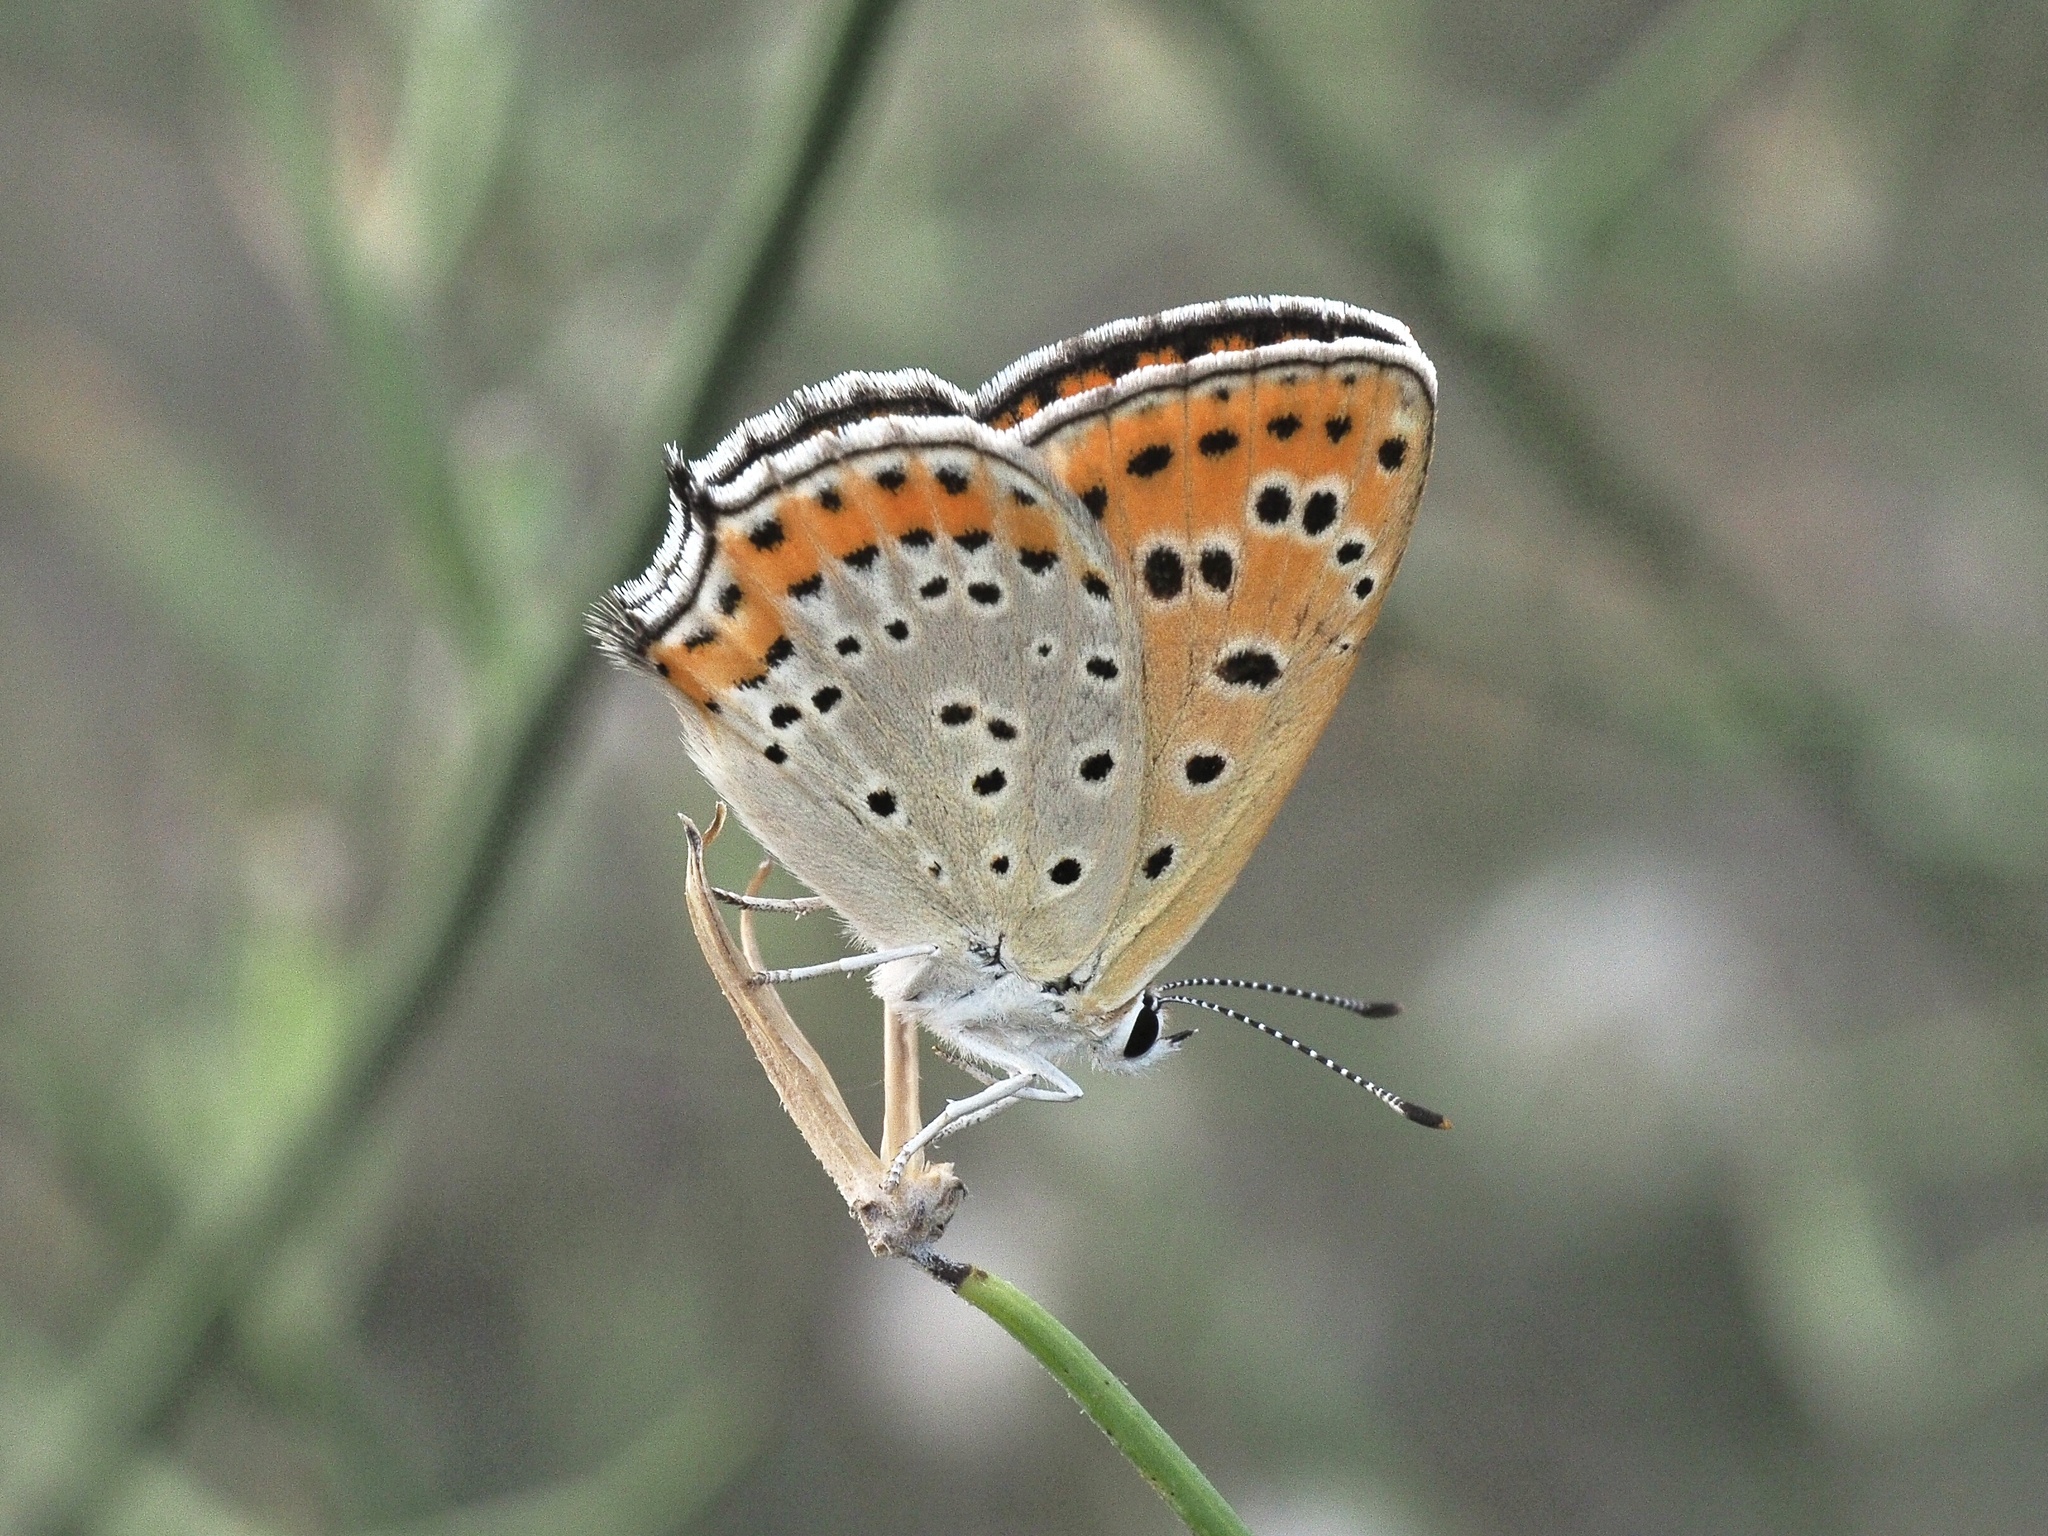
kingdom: Animalia
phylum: Arthropoda
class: Insecta
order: Lepidoptera
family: Lycaenidae
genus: Thersamonia
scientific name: Thersamonia thersamon
